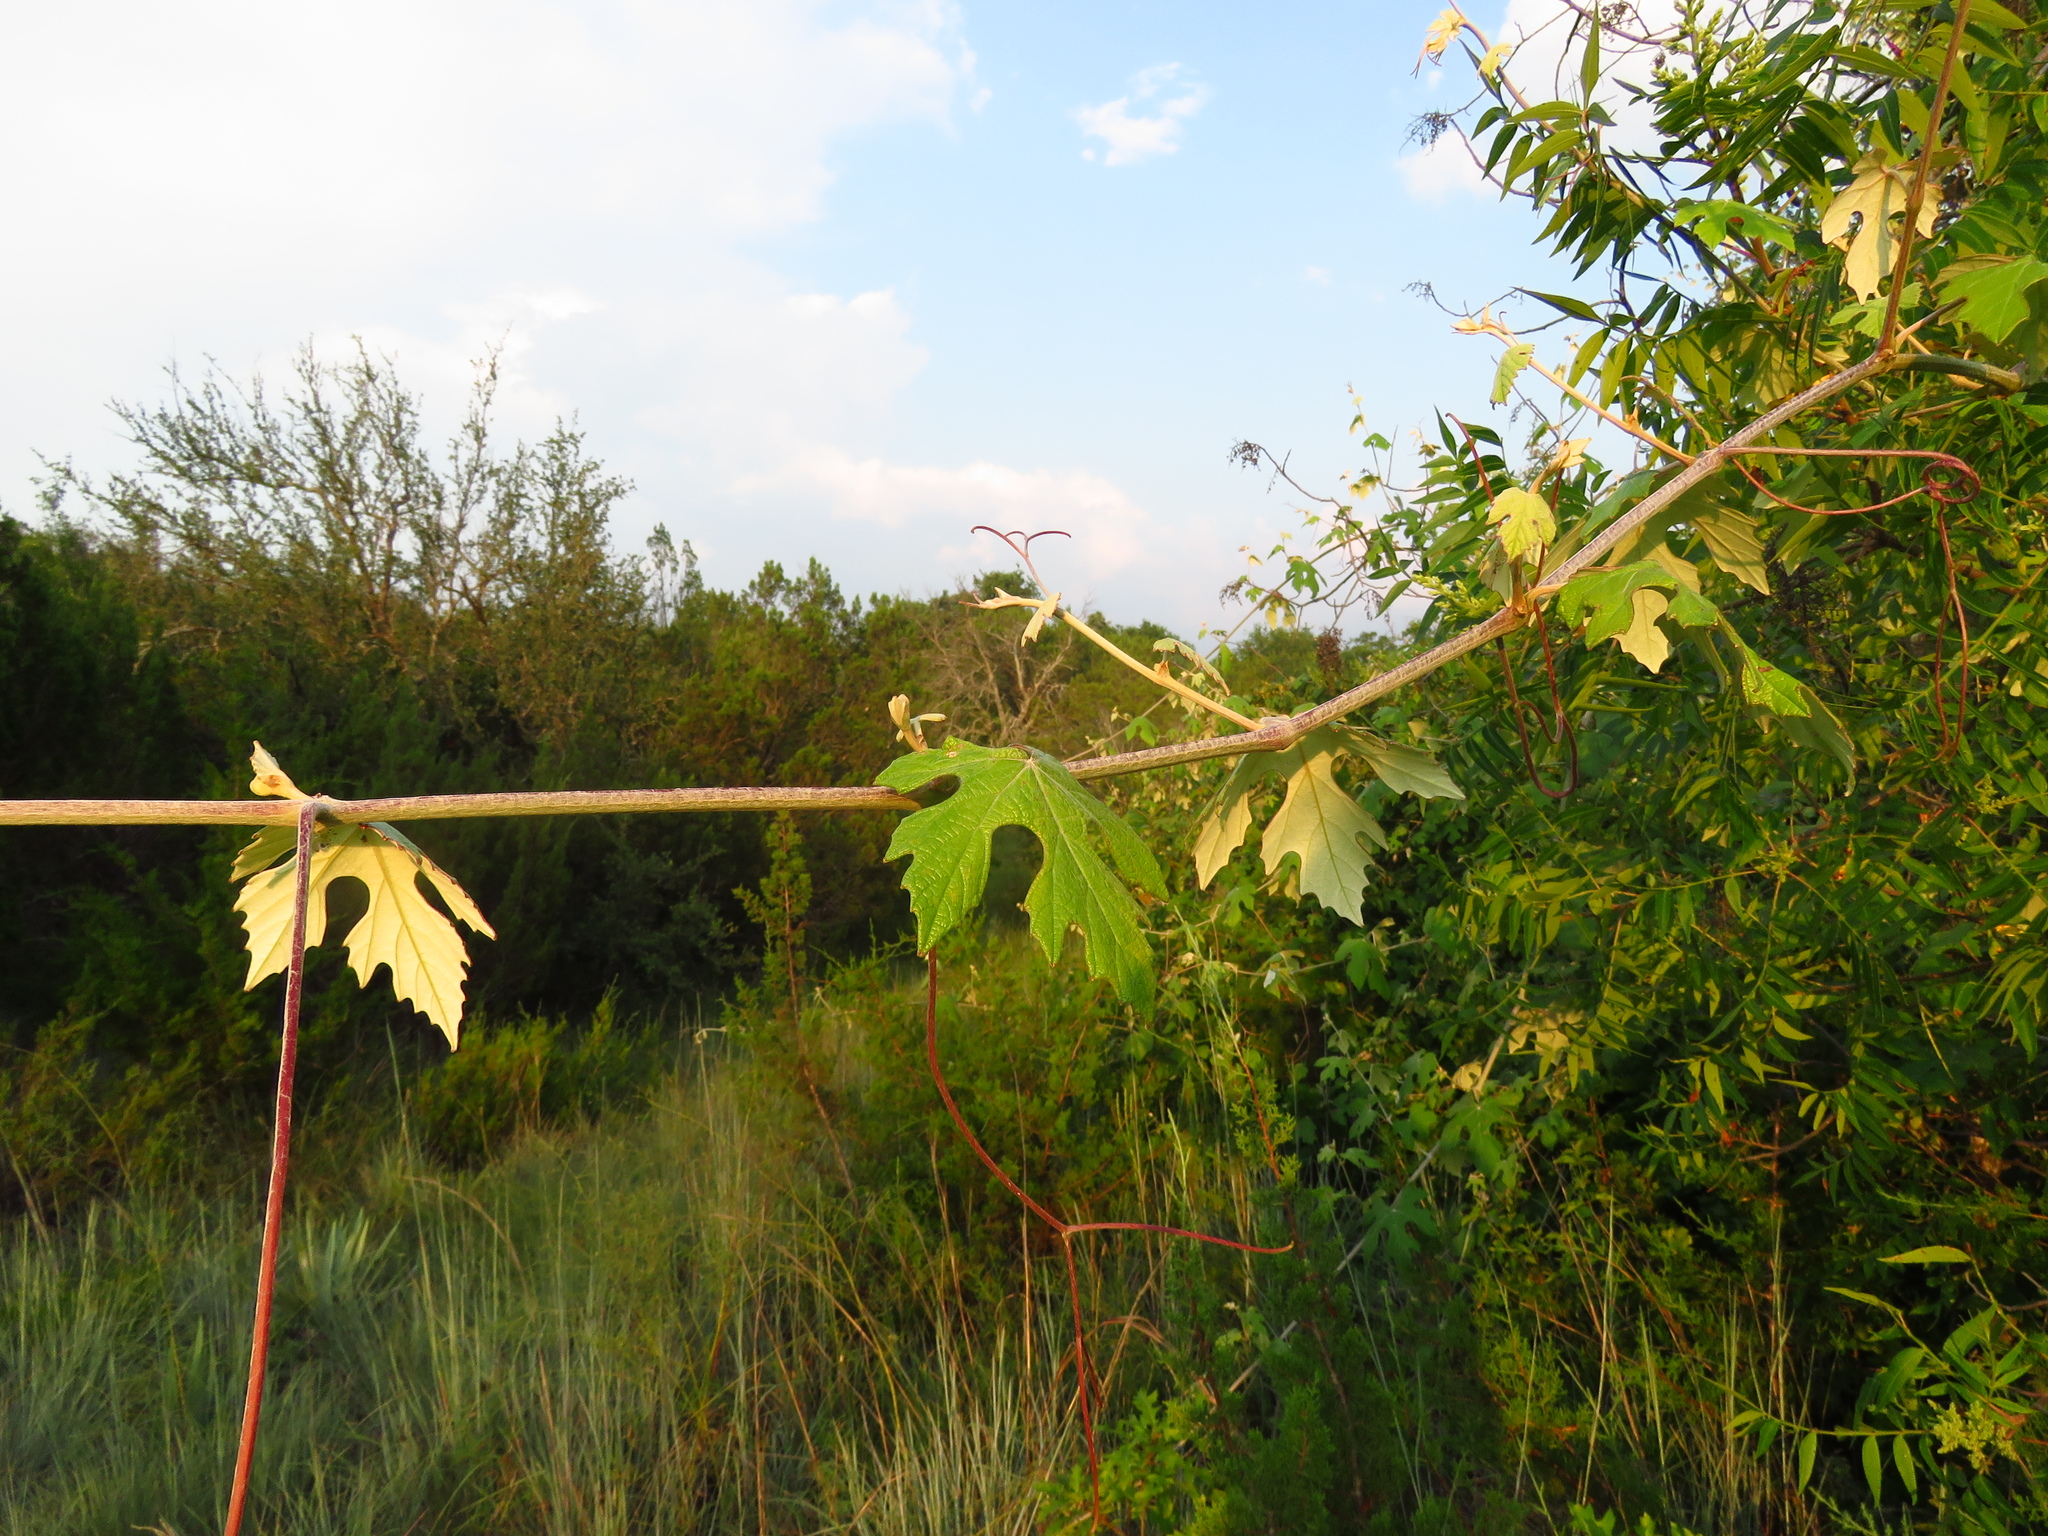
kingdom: Plantae
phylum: Tracheophyta
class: Magnoliopsida
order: Vitales
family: Vitaceae
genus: Vitis
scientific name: Vitis mustangensis
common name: Mustang grape
